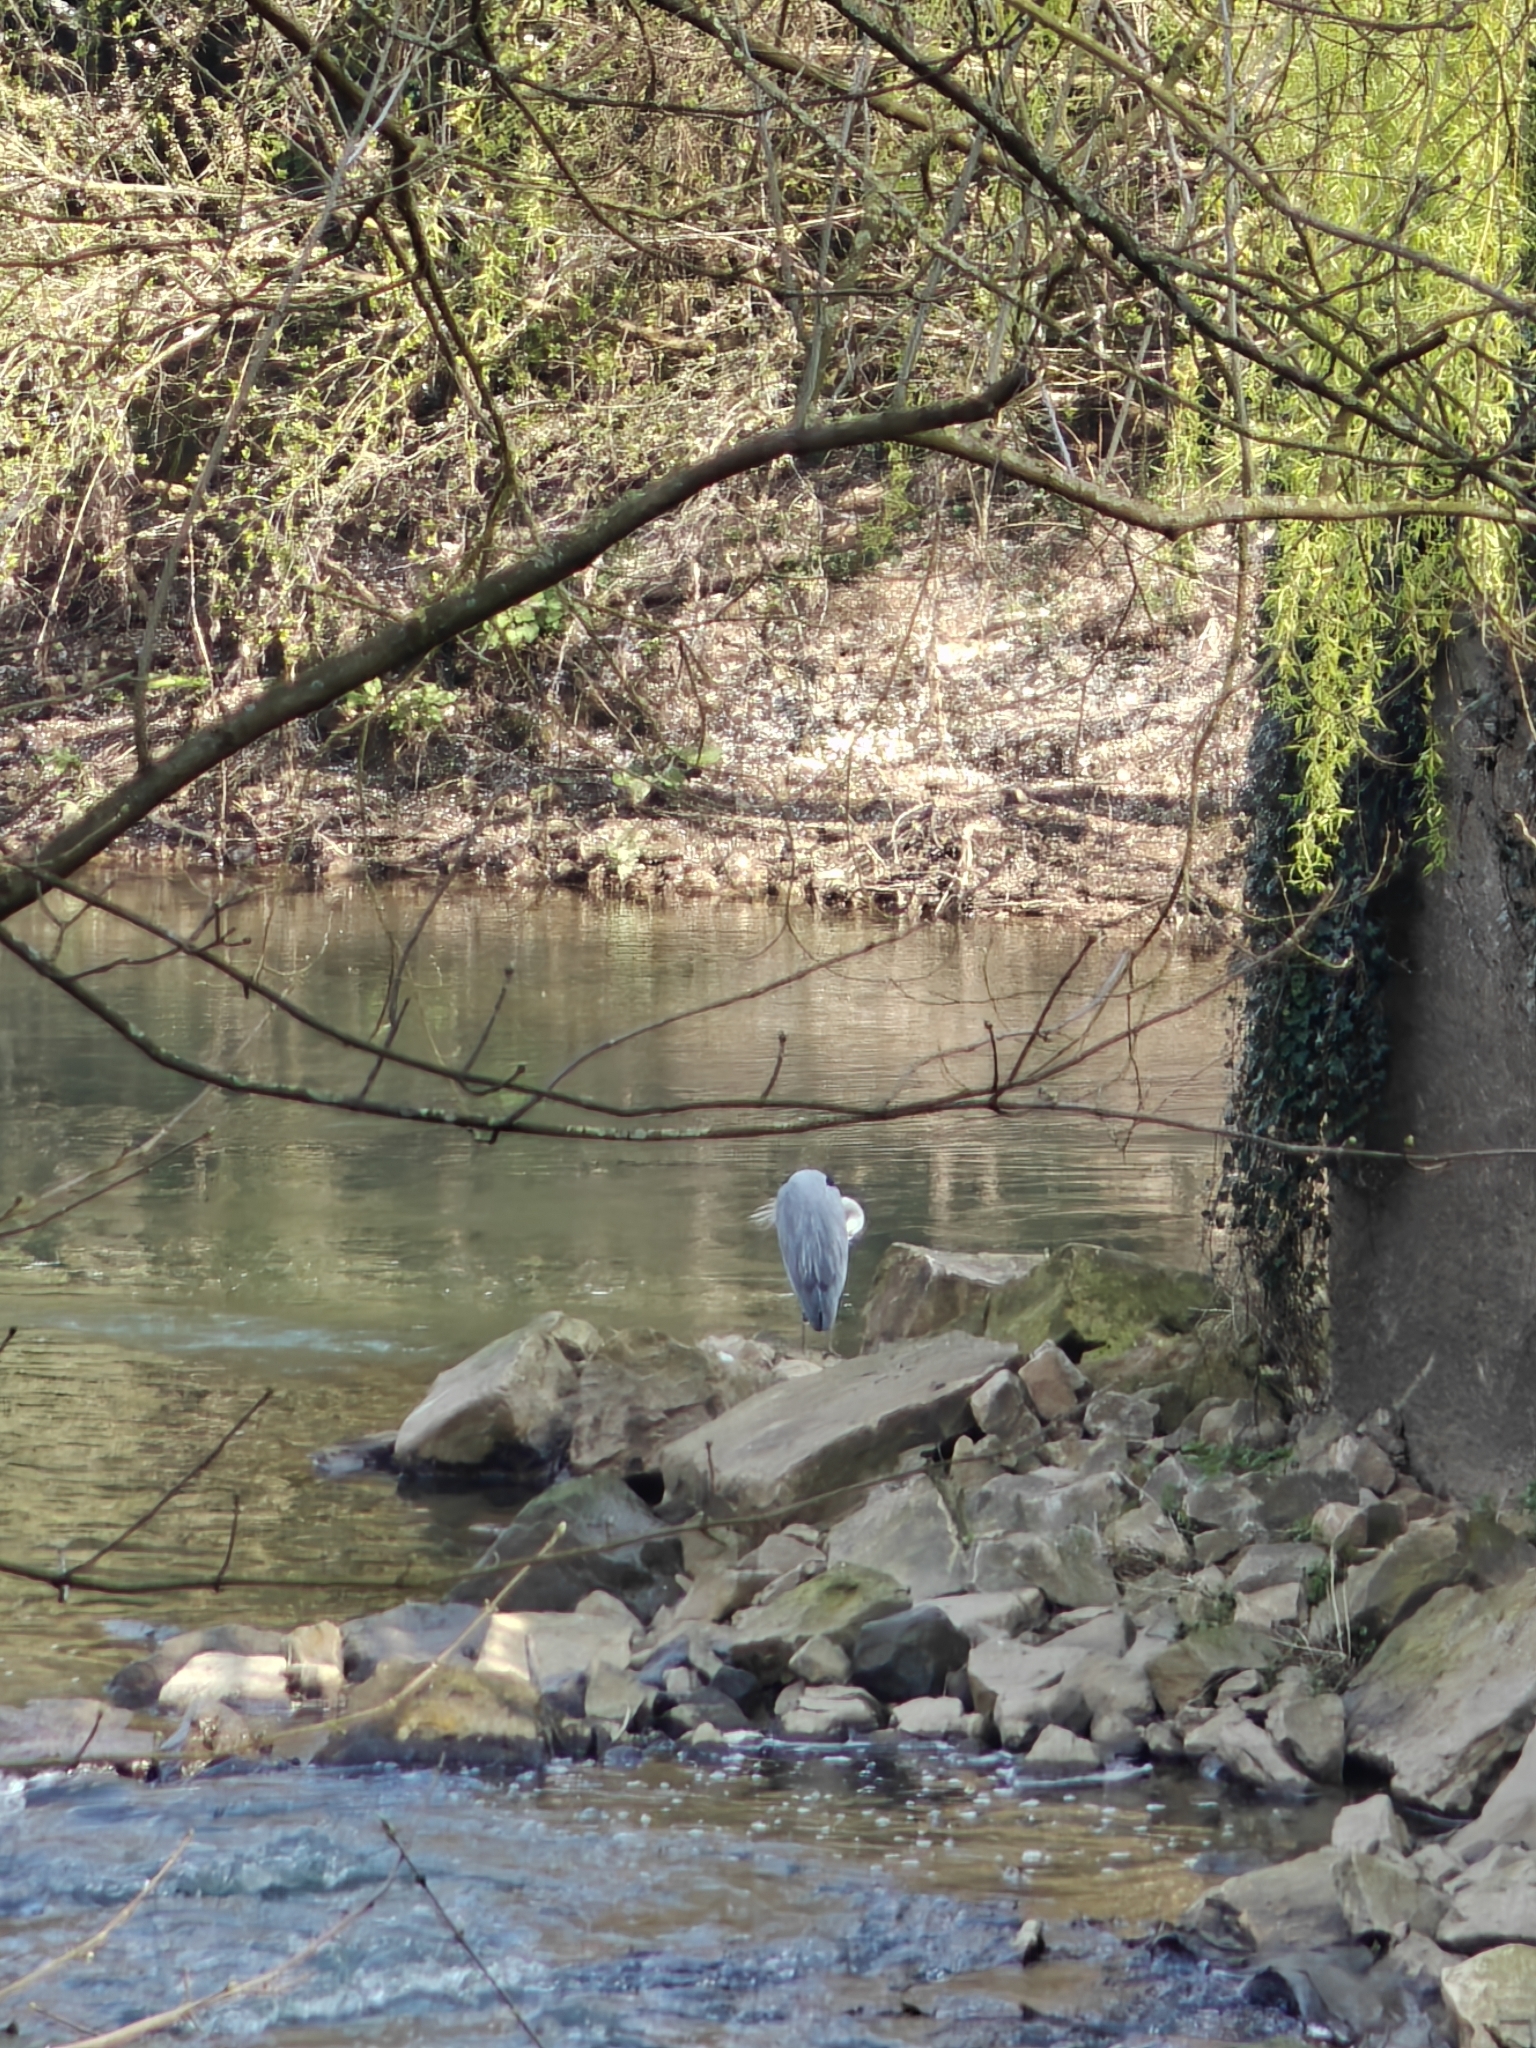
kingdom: Animalia
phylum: Chordata
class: Aves
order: Pelecaniformes
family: Ardeidae
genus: Ardea
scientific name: Ardea cinerea
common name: Grey heron
